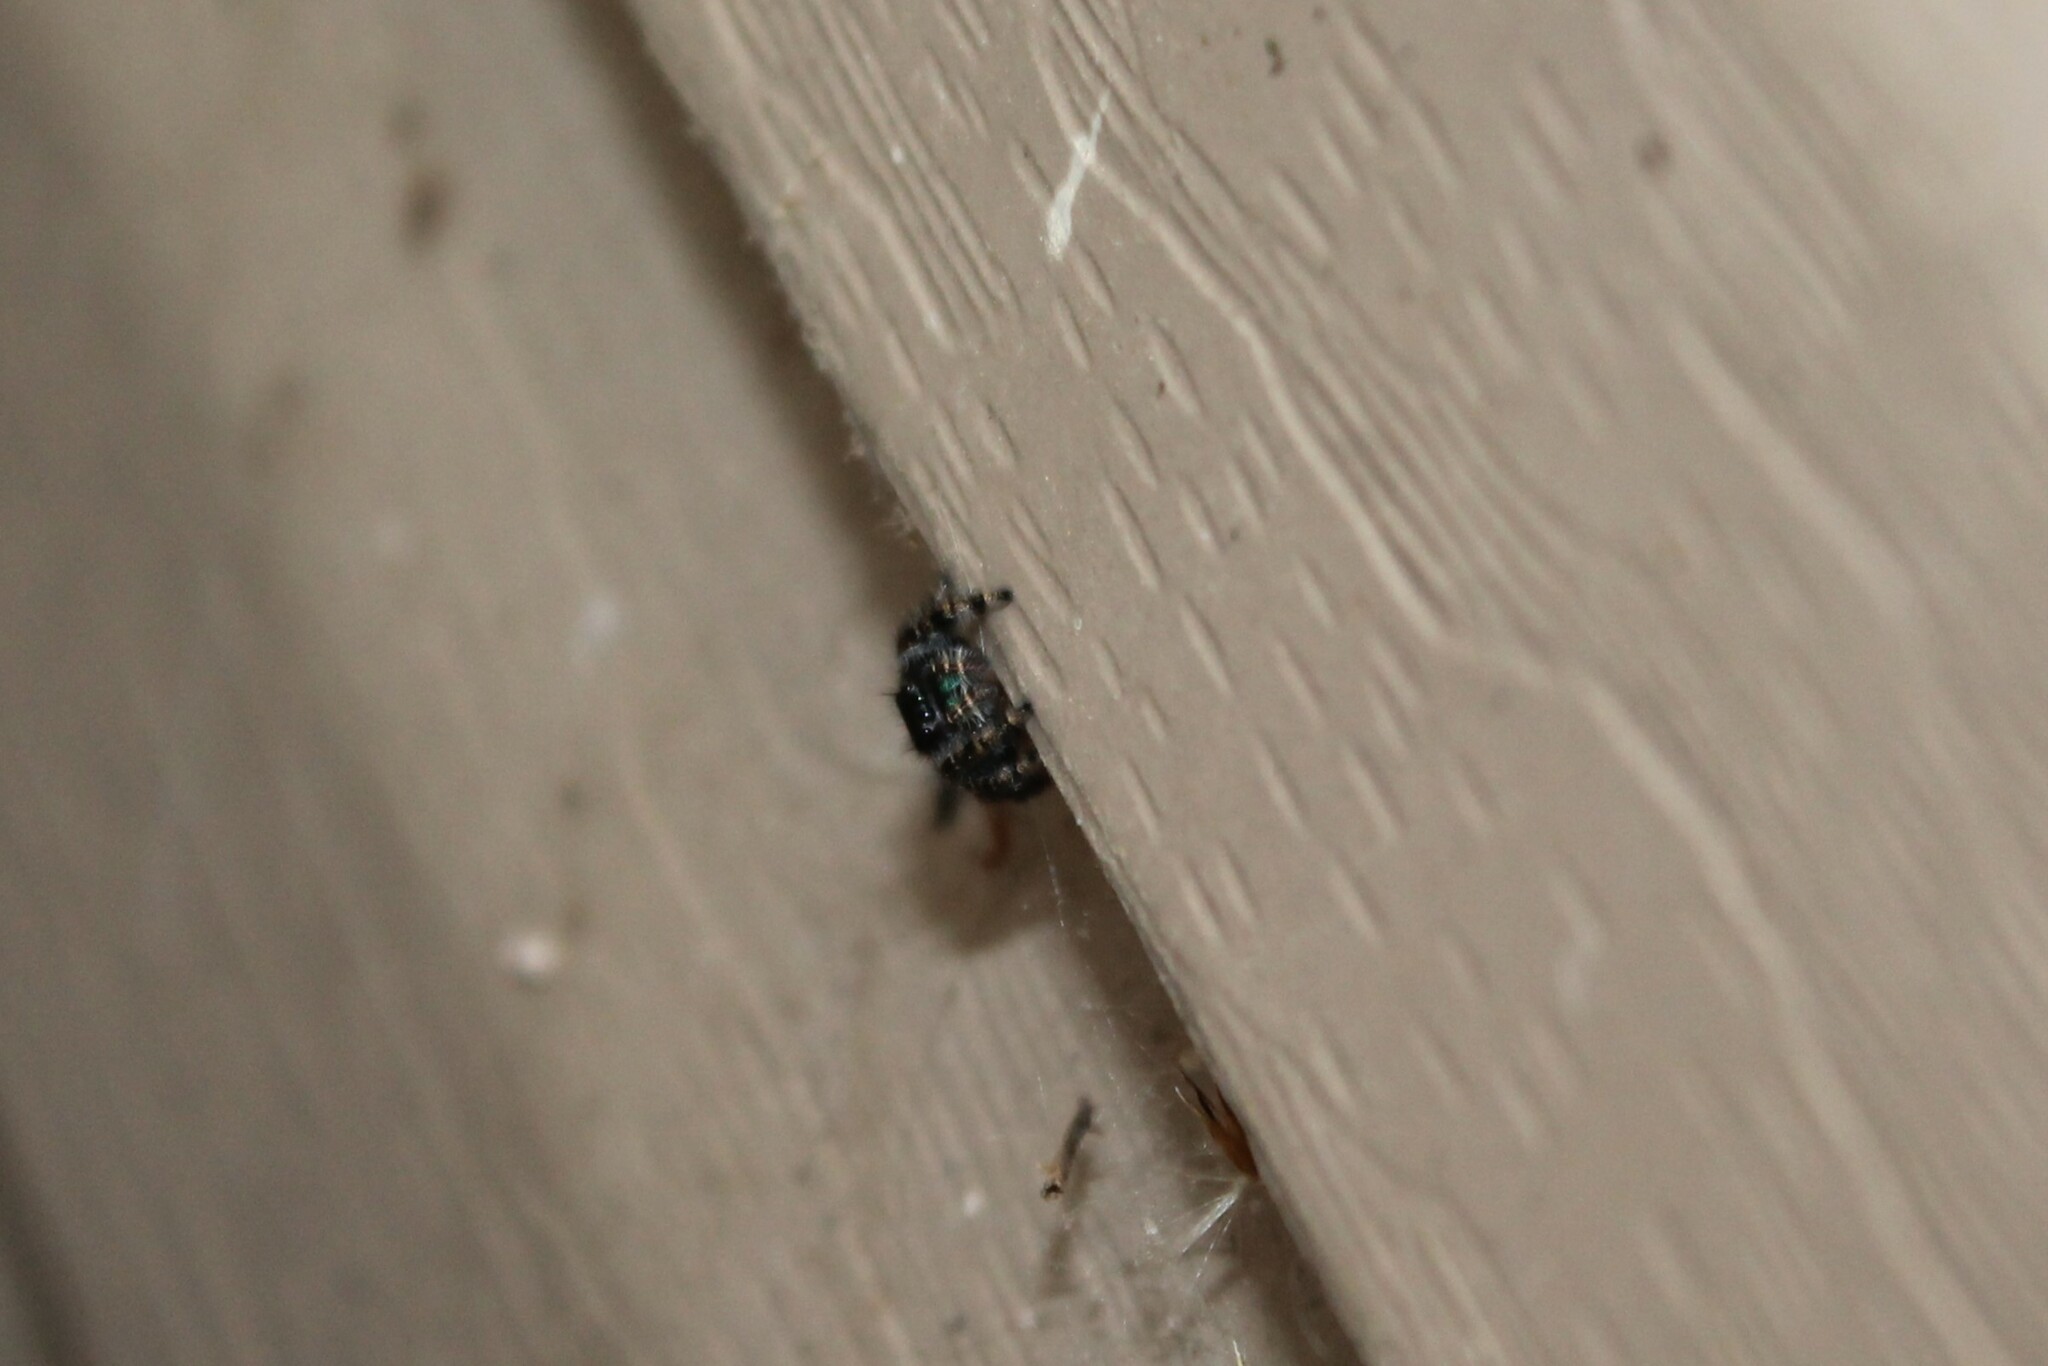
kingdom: Animalia
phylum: Arthropoda
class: Arachnida
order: Araneae
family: Salticidae
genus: Phidippus
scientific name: Phidippus audax
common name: Bold jumper
